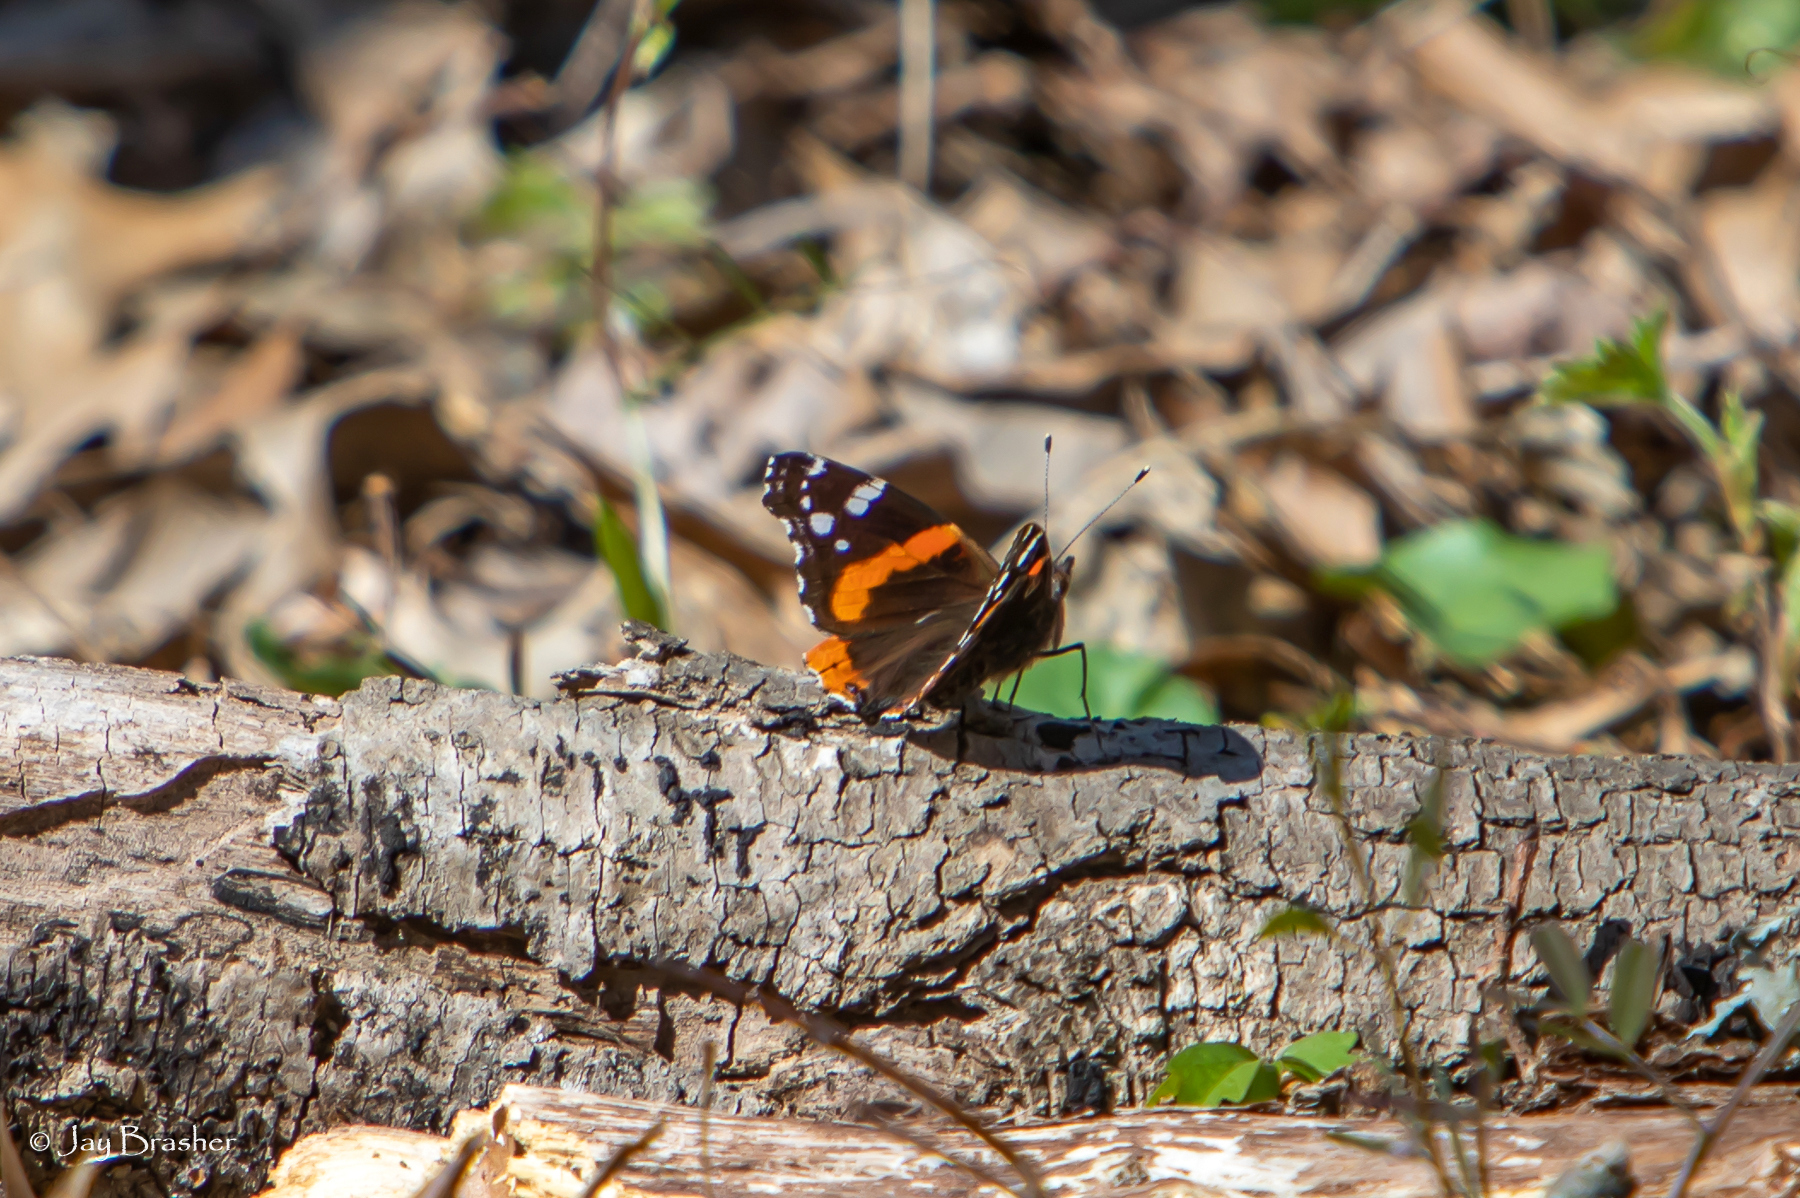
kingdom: Animalia
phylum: Arthropoda
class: Insecta
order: Lepidoptera
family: Nymphalidae
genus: Vanessa
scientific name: Vanessa atalanta
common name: Red admiral
